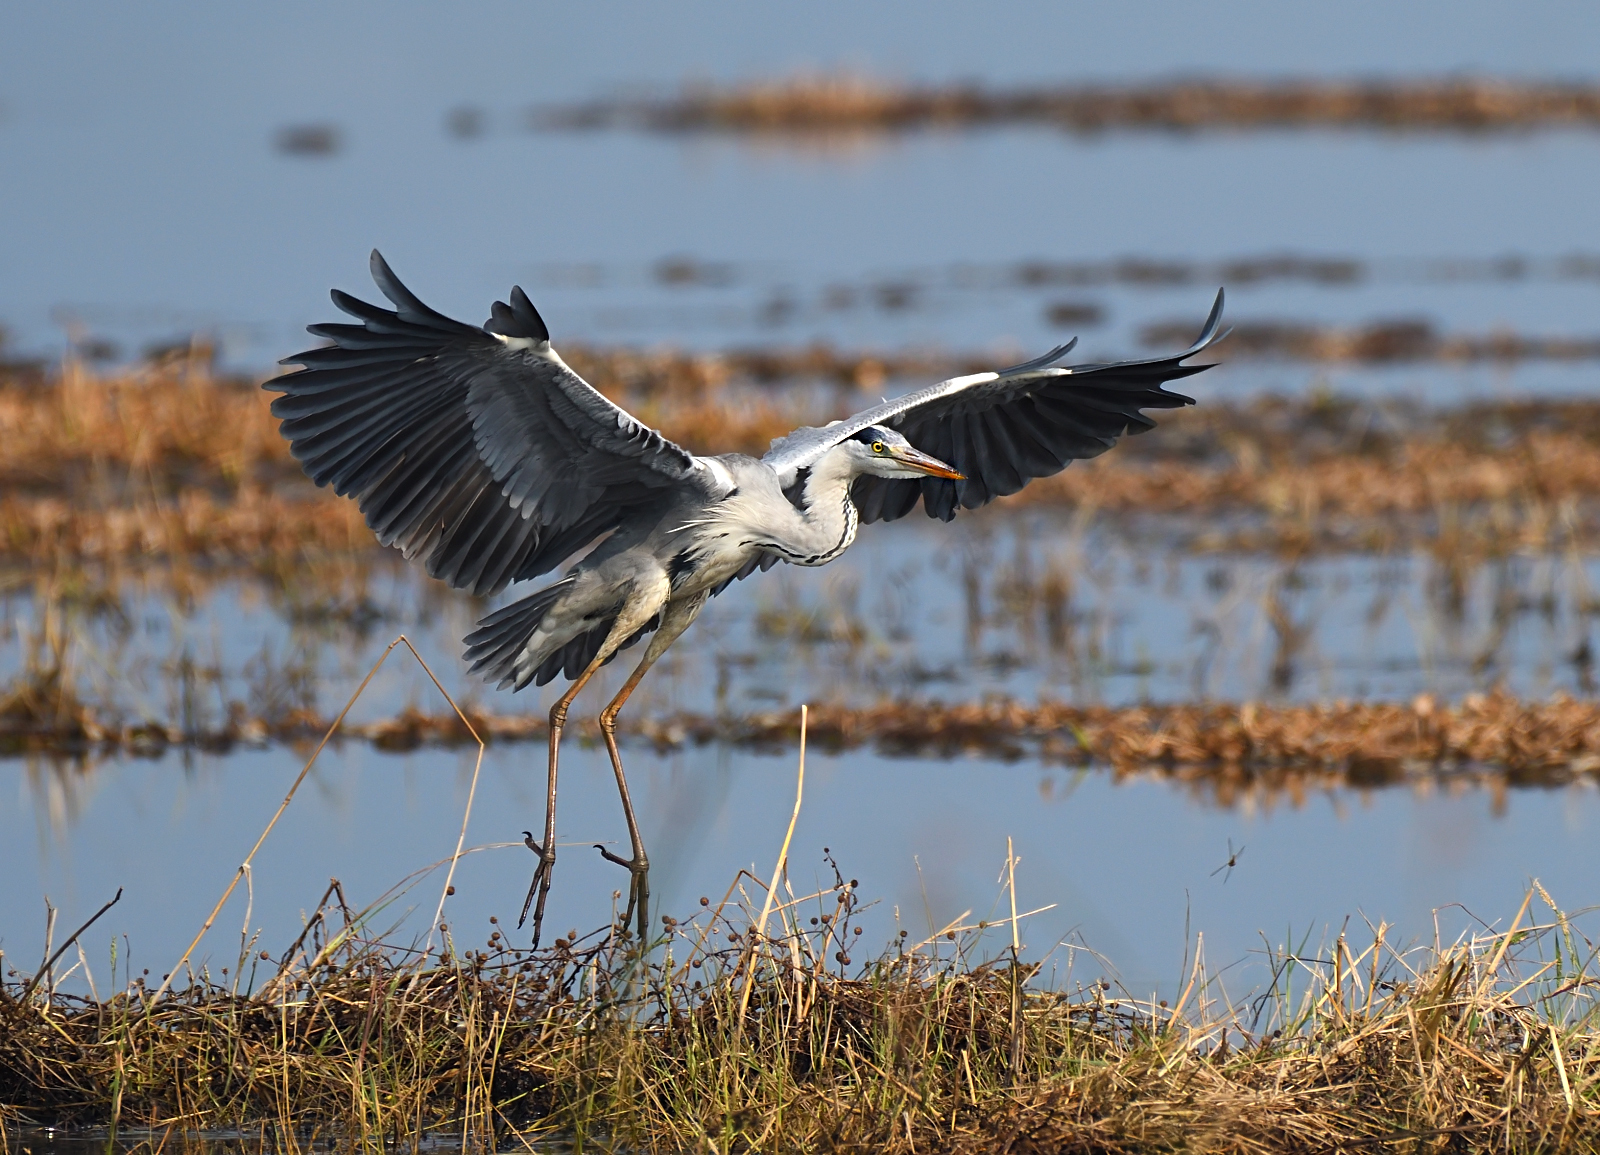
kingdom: Animalia
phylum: Chordata
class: Aves
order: Pelecaniformes
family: Ardeidae
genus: Ardea
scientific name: Ardea cinerea
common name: Grey heron
